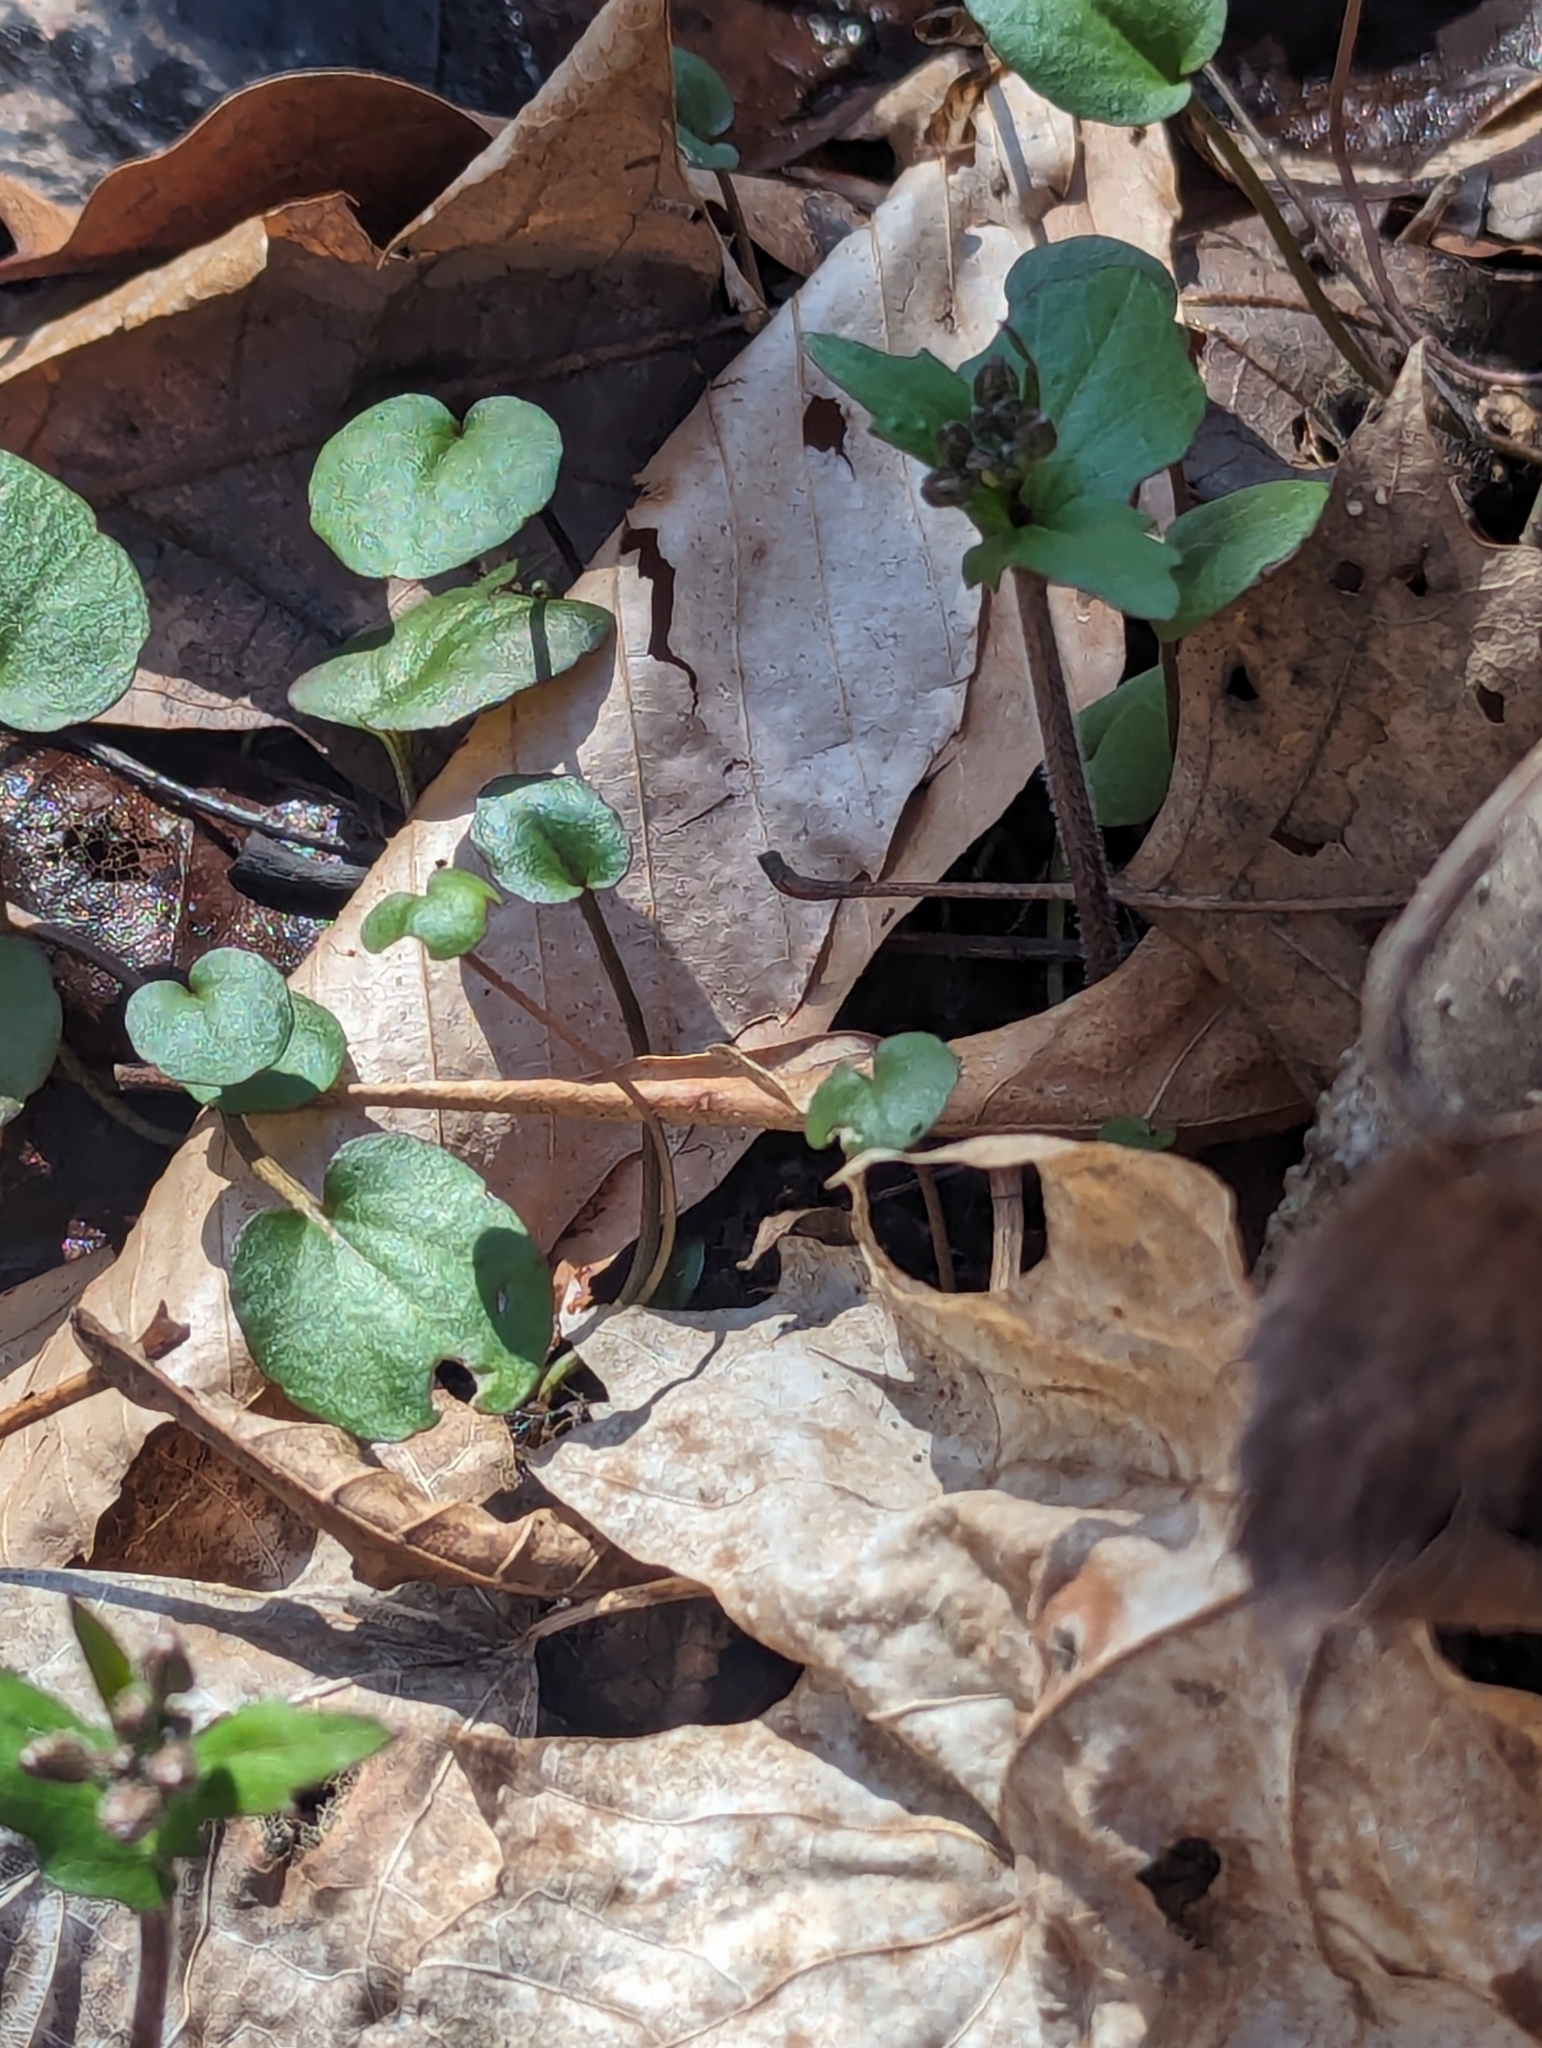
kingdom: Plantae
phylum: Tracheophyta
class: Magnoliopsida
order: Brassicales
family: Brassicaceae
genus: Cardamine
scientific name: Cardamine douglassii
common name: Purple cress
